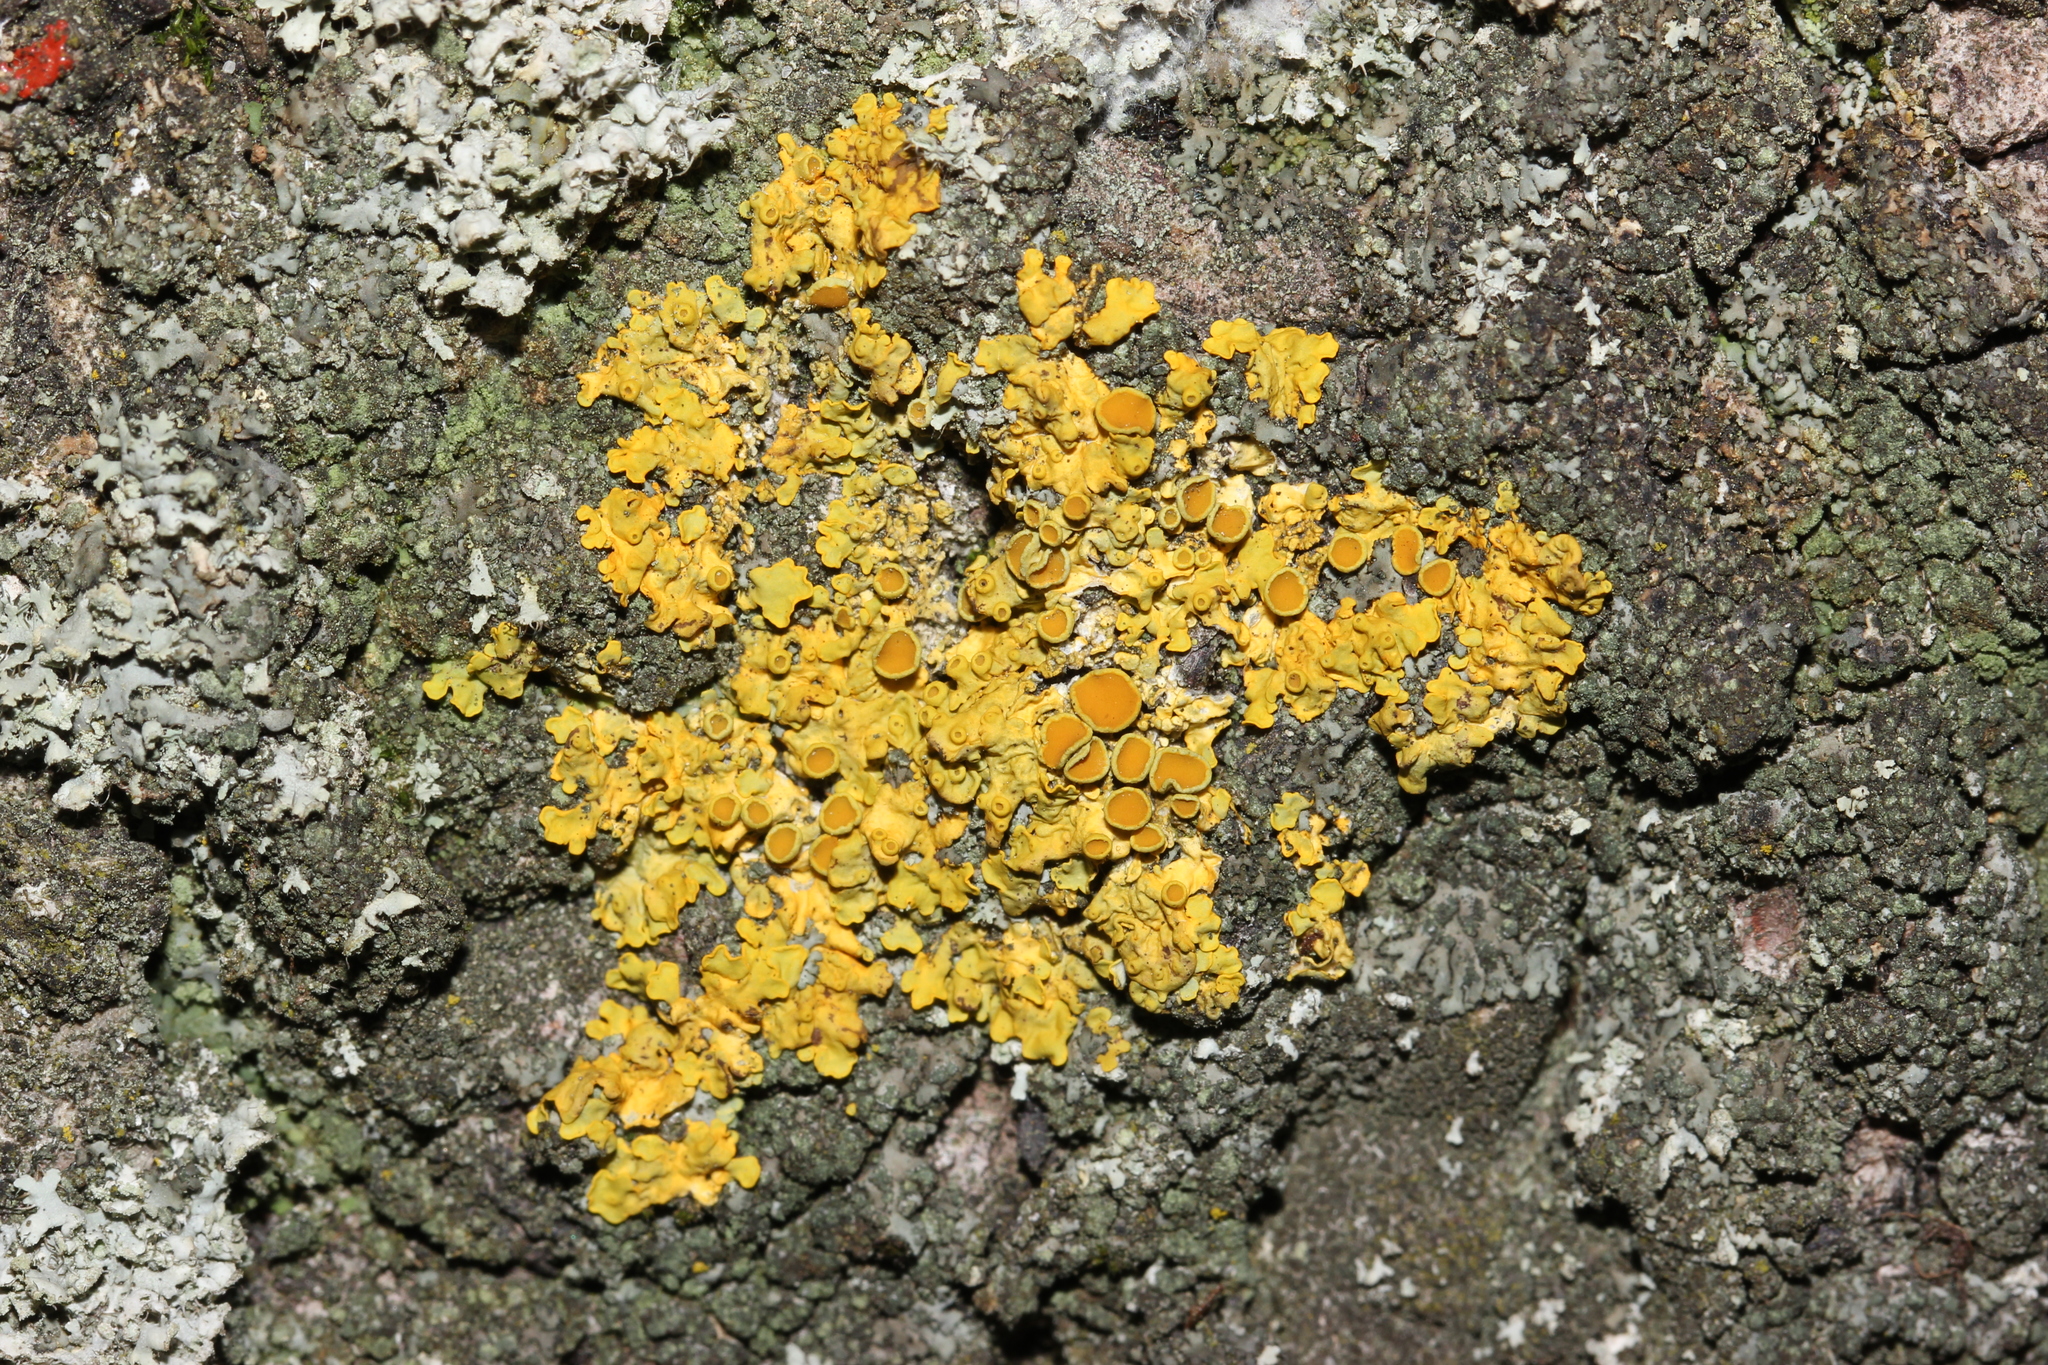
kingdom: Fungi
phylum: Ascomycota
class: Lecanoromycetes
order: Teloschistales
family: Teloschistaceae
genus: Xanthoria
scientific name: Xanthoria parietina
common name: Common orange lichen
